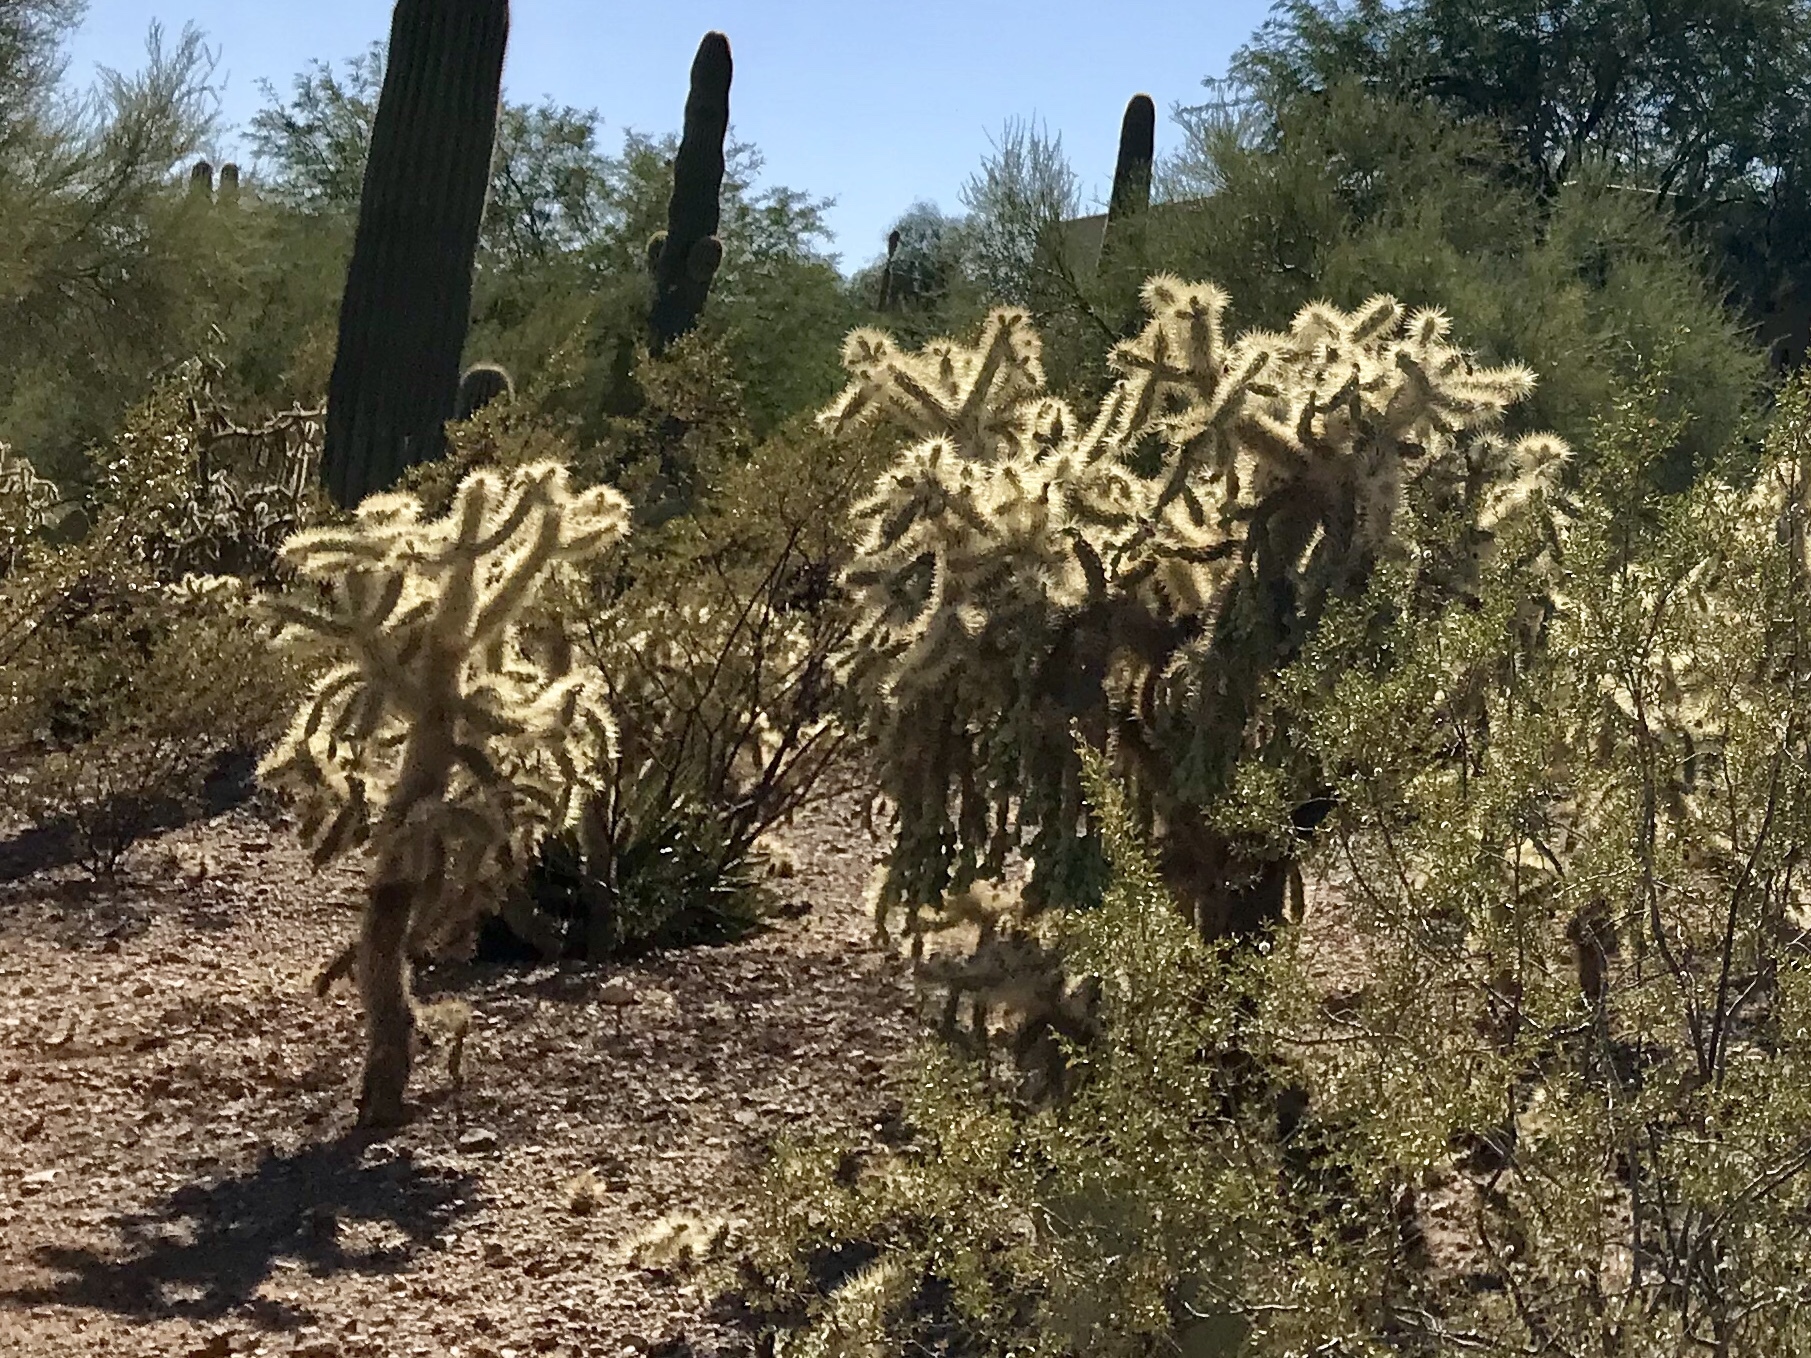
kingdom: Plantae
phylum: Tracheophyta
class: Magnoliopsida
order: Caryophyllales
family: Cactaceae
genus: Cylindropuntia
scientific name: Cylindropuntia fulgida
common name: Jumping cholla
